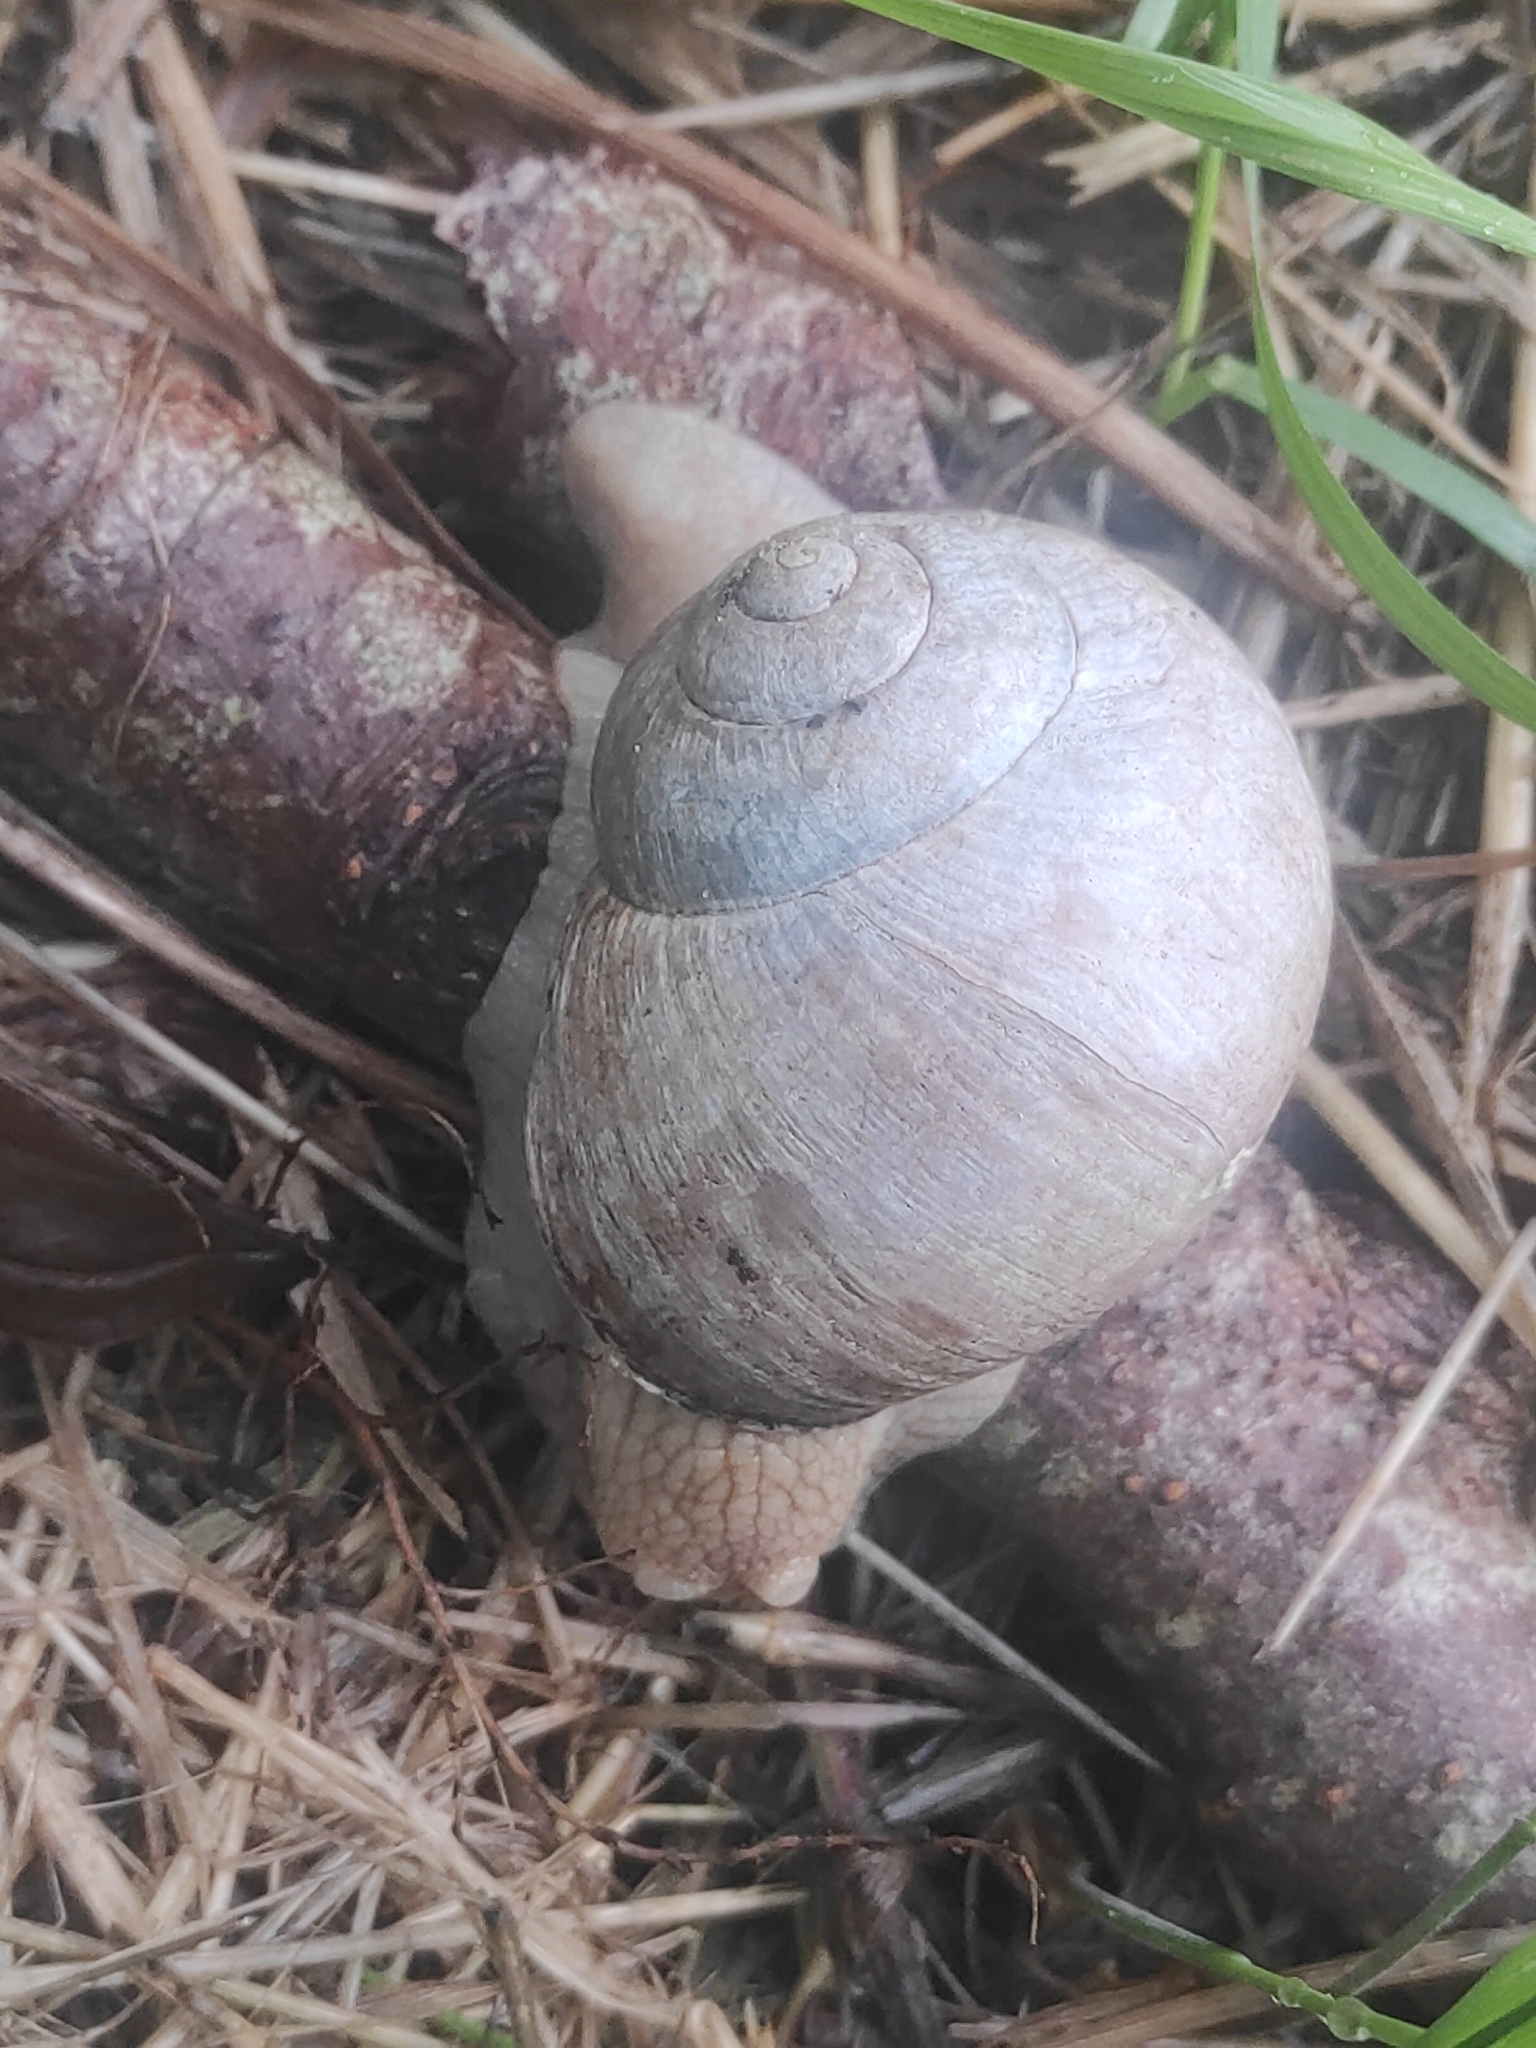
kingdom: Animalia
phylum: Mollusca
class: Gastropoda
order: Stylommatophora
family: Helicidae
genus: Helix
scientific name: Helix pomatia
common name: Roman snail
